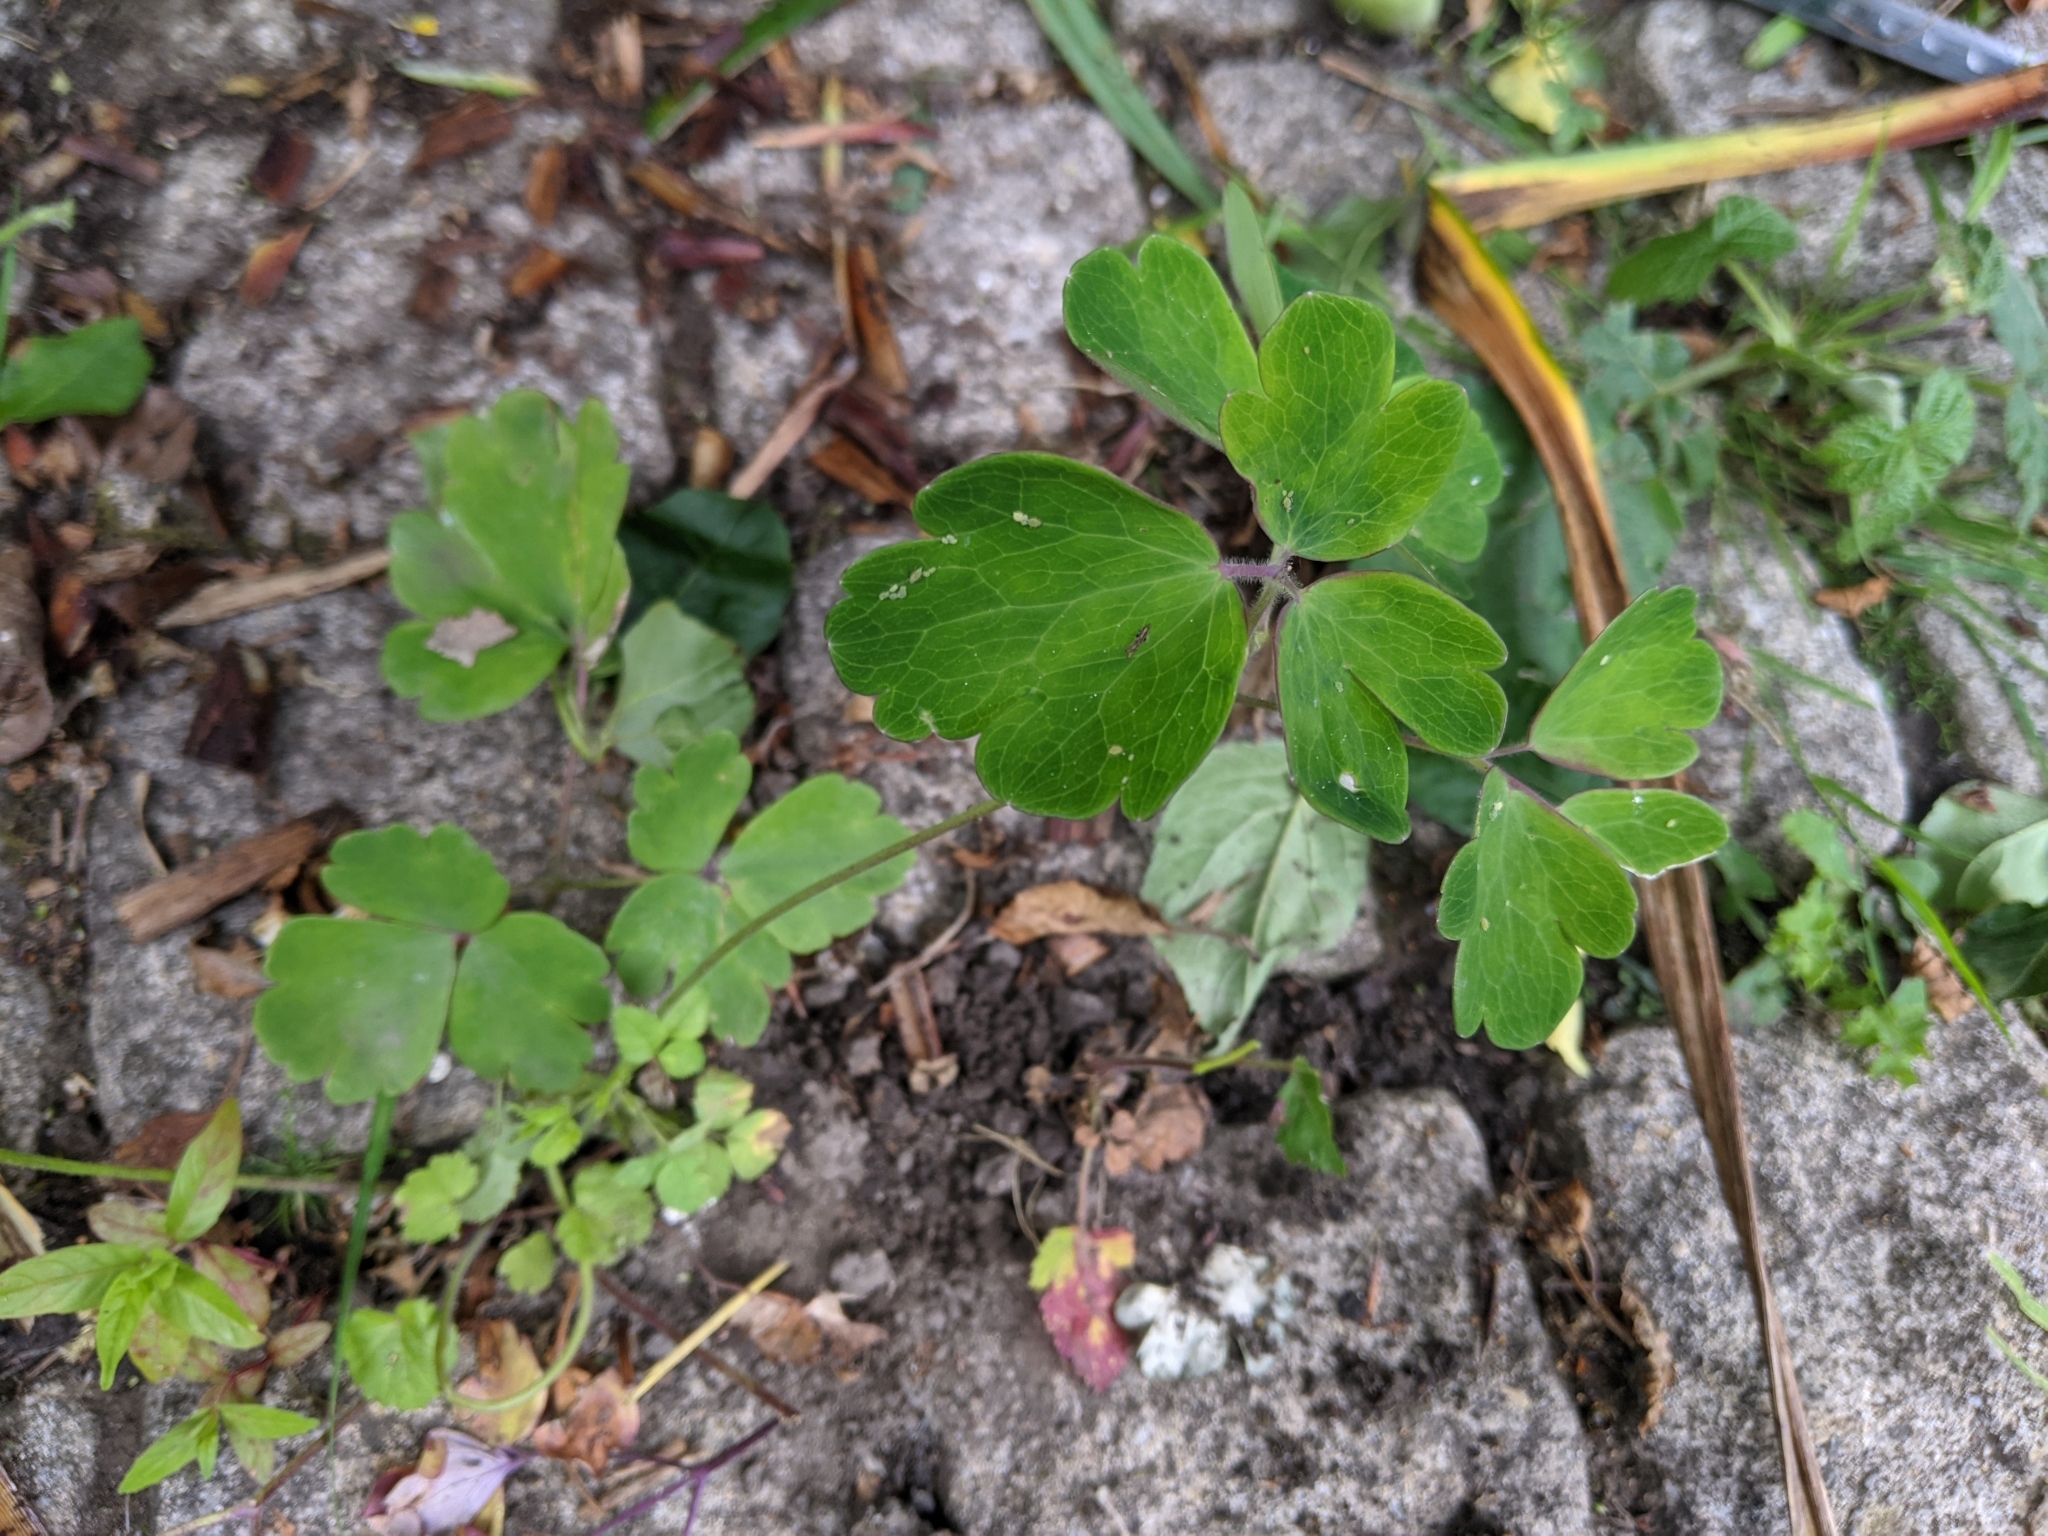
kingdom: Plantae
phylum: Tracheophyta
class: Magnoliopsida
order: Ranunculales
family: Ranunculaceae
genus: Aquilegia
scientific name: Aquilegia vulgaris
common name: Columbine
